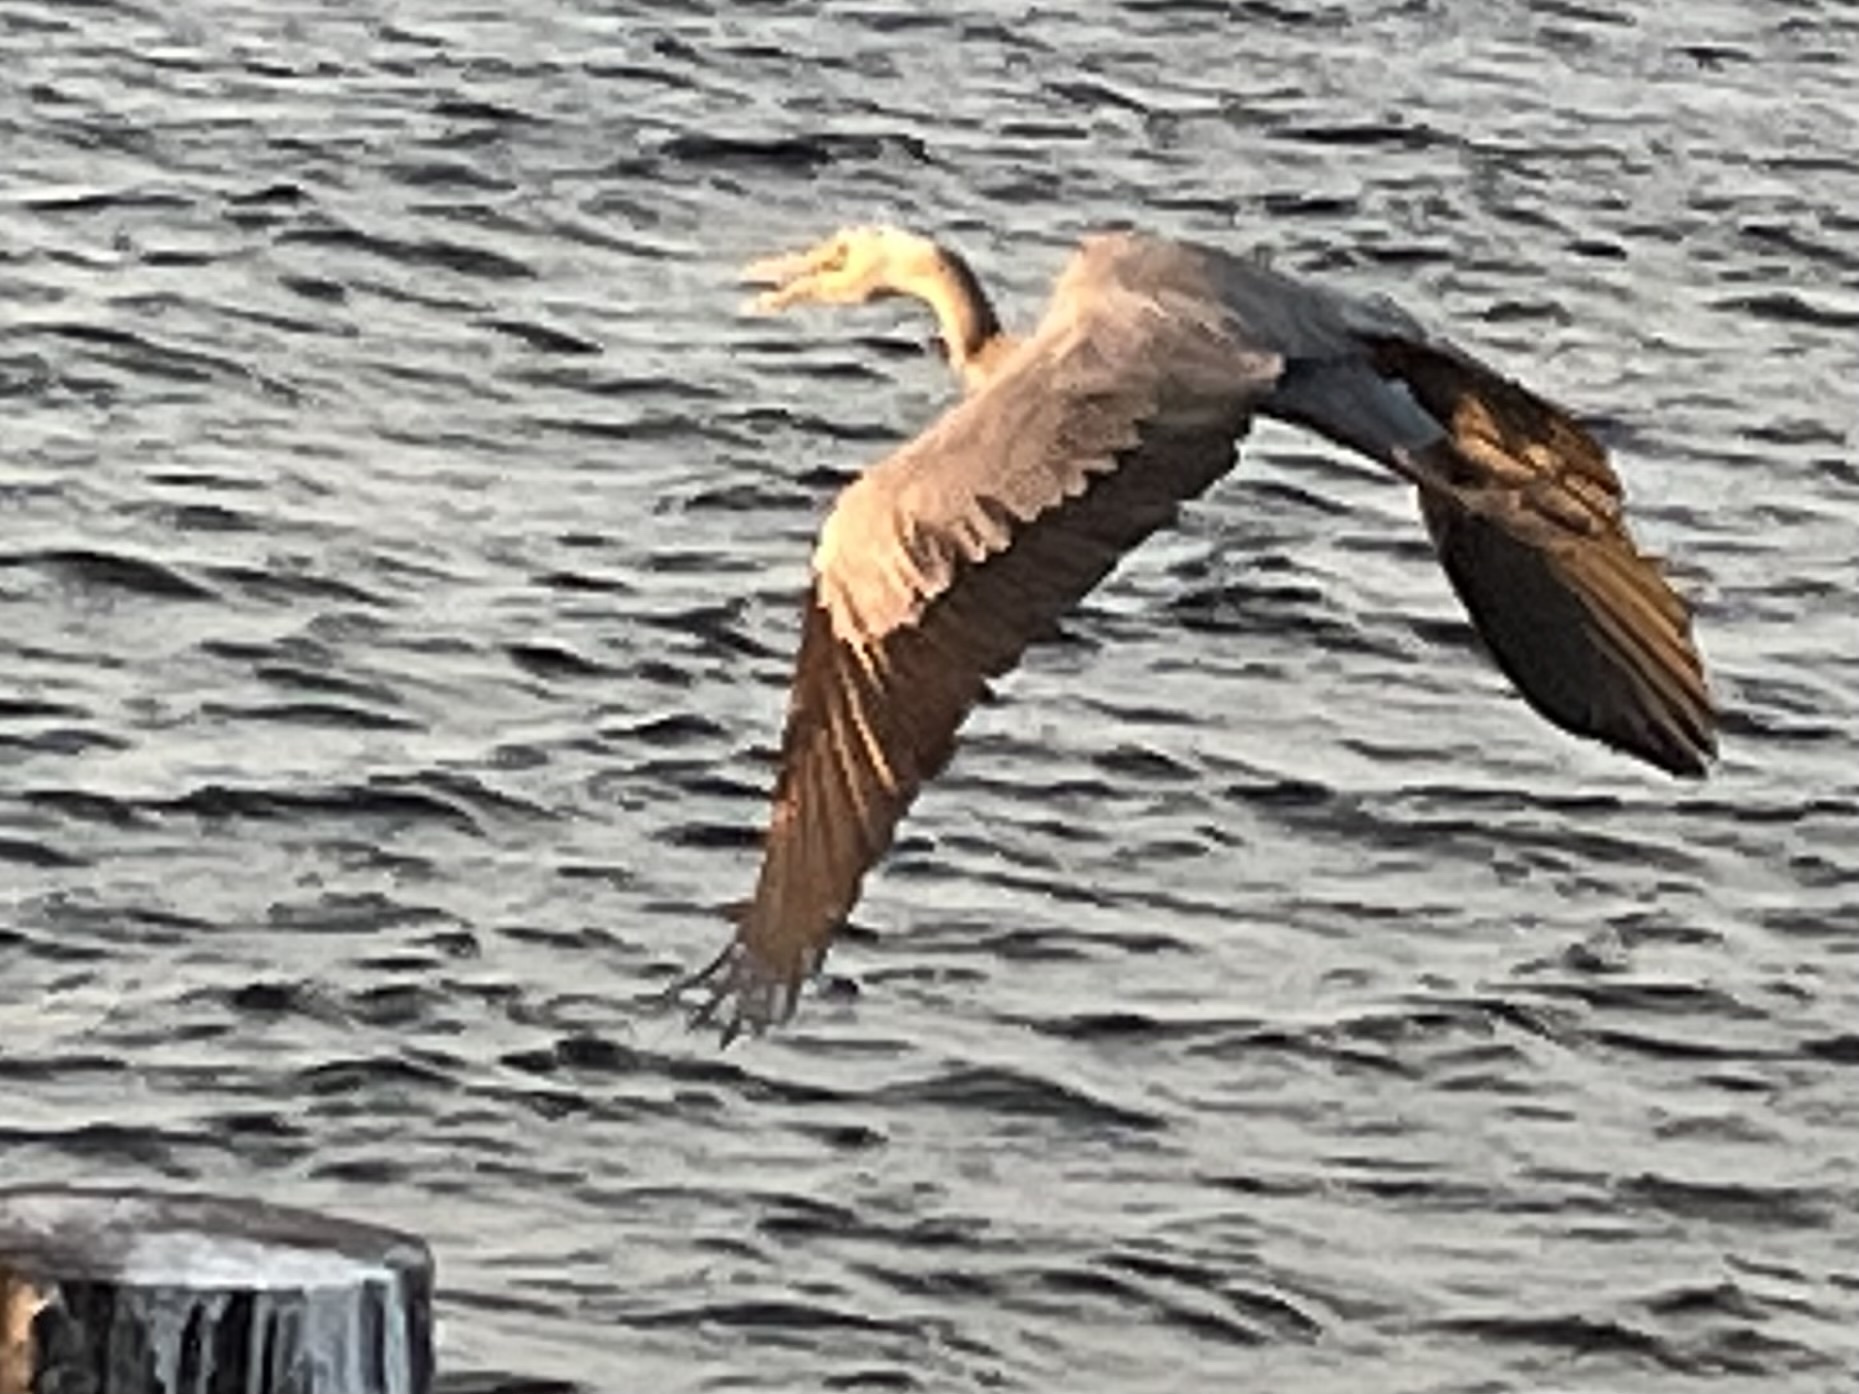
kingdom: Animalia
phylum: Chordata
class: Aves
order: Pelecaniformes
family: Ardeidae
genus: Ardea
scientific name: Ardea herodias
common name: Great blue heron
